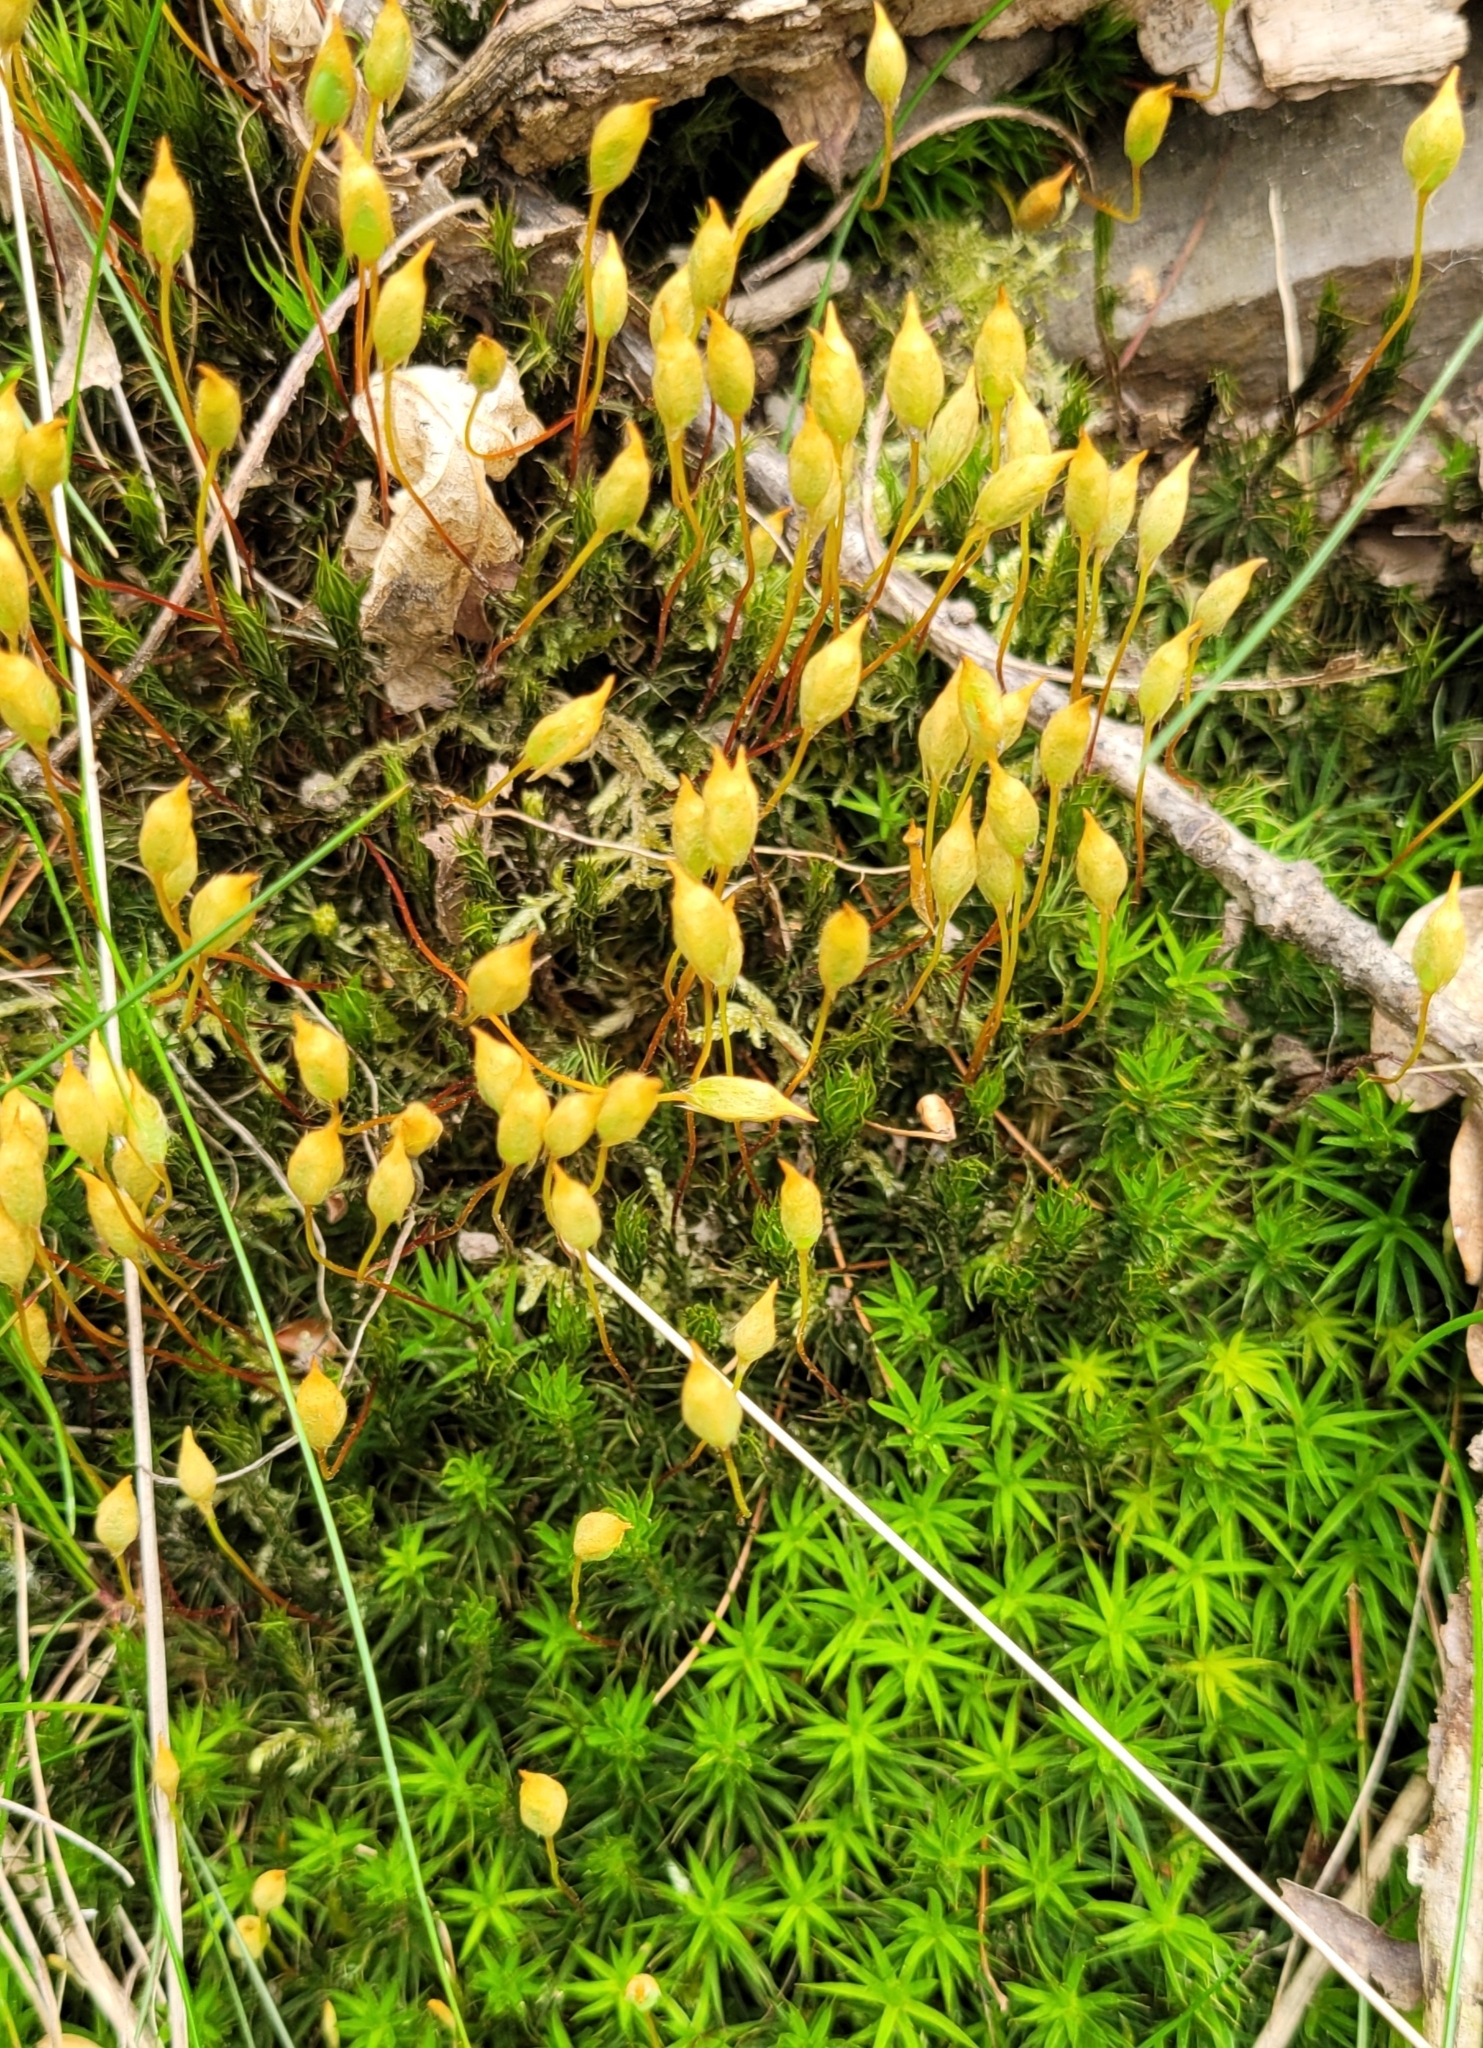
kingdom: Plantae
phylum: Bryophyta
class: Polytrichopsida
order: Polytrichales
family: Polytrichaceae
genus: Polytrichum
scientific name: Polytrichum formosum
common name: Bank haircap moss
